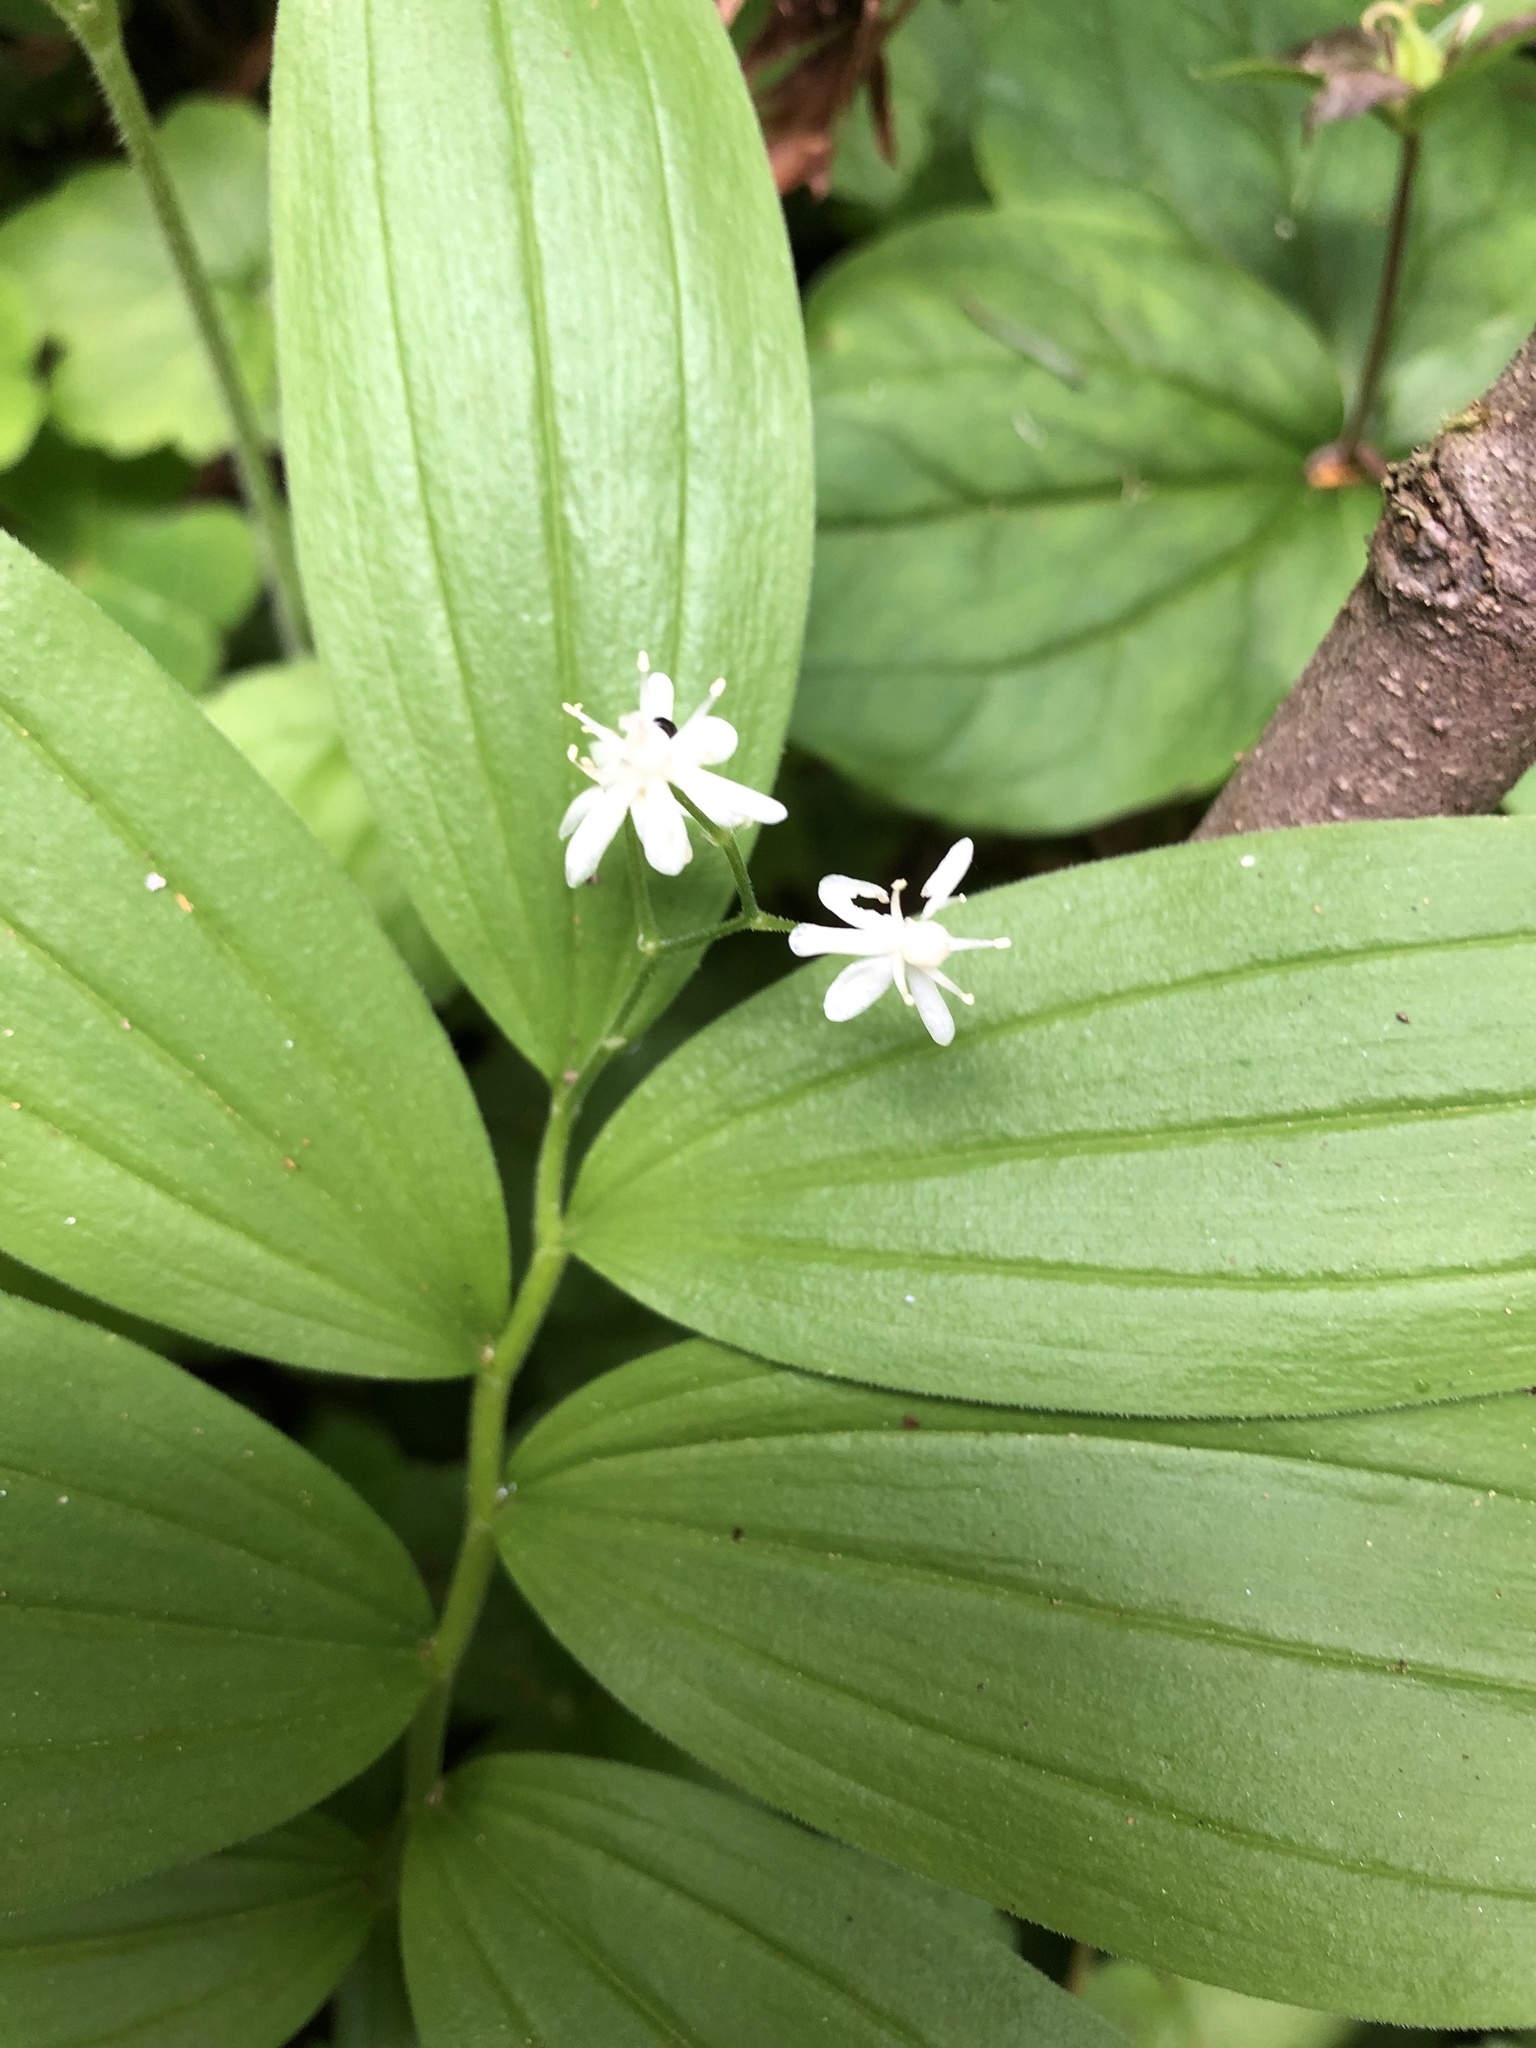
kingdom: Plantae
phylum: Tracheophyta
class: Liliopsida
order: Asparagales
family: Asparagaceae
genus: Maianthemum
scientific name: Maianthemum stellatum
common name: Little false solomon's seal
